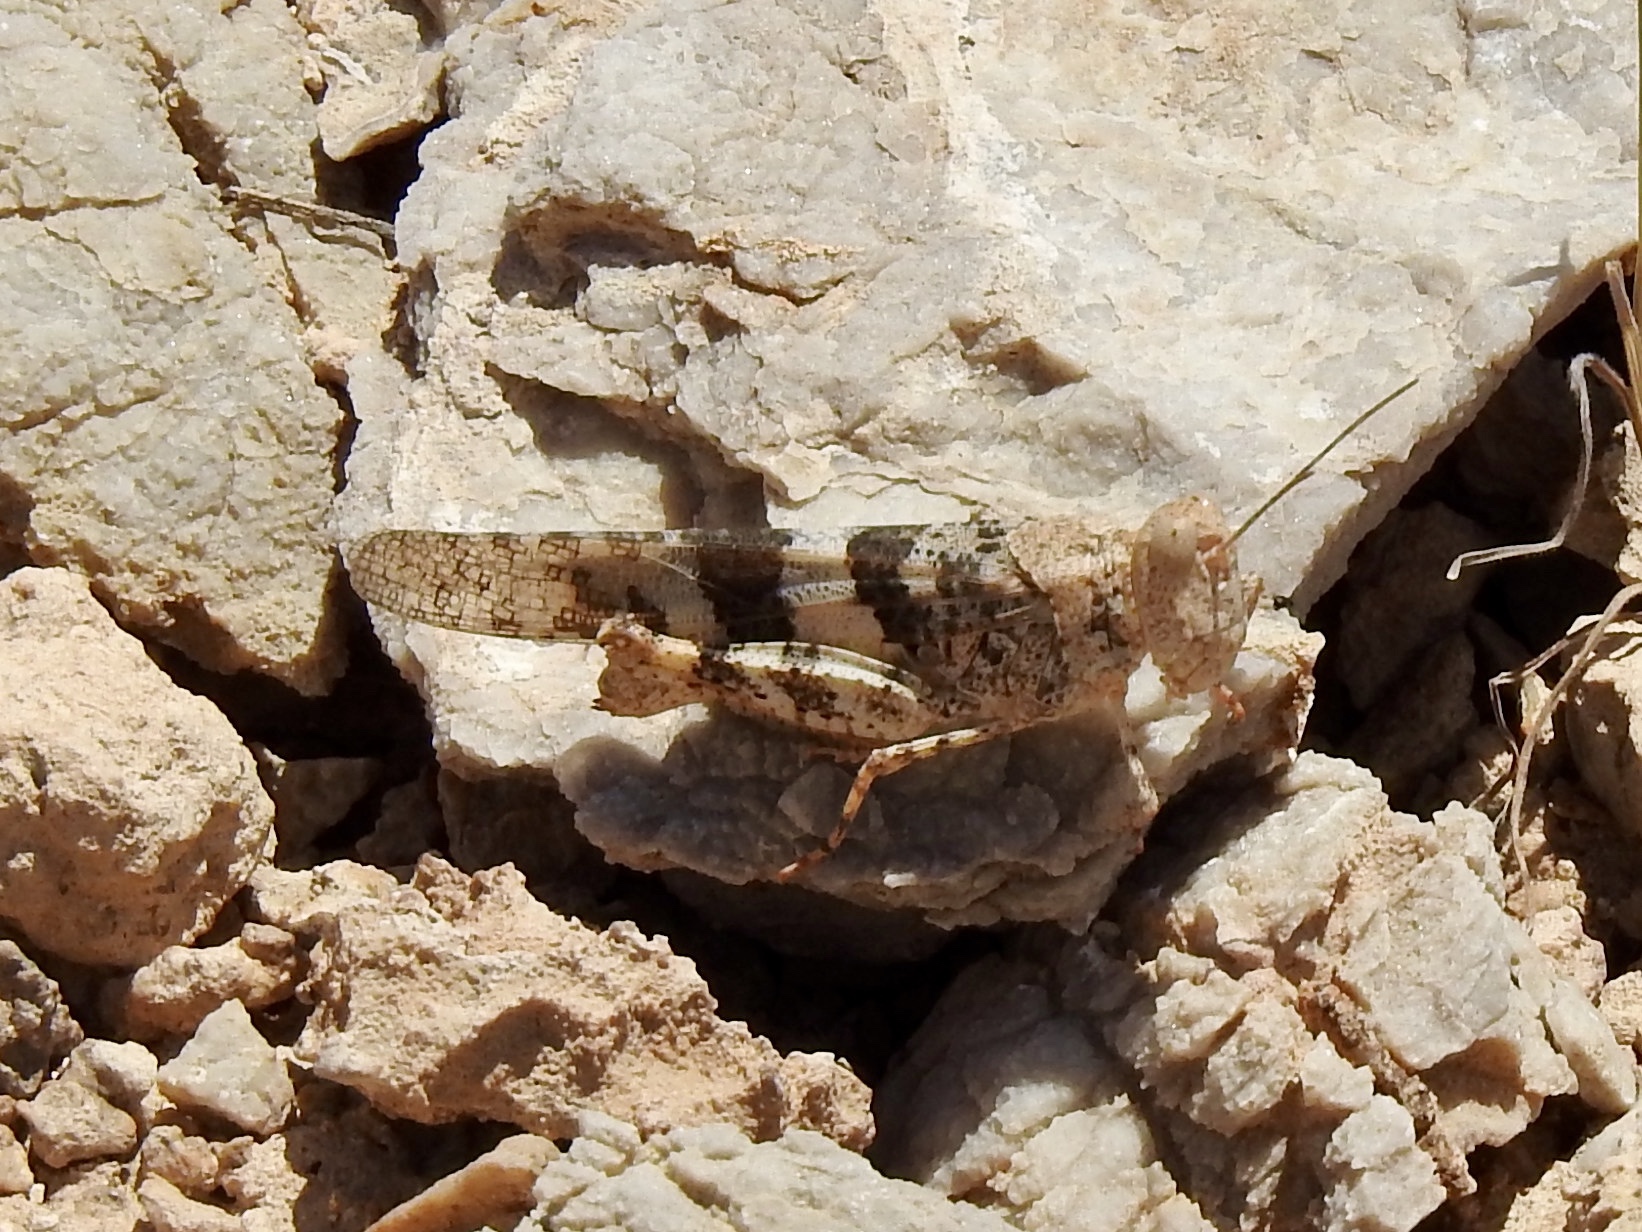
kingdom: Animalia
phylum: Arthropoda
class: Insecta
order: Orthoptera
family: Acrididae
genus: Trimerotropis
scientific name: Trimerotropis pallidipennis
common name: Pallid-winged grasshopper
